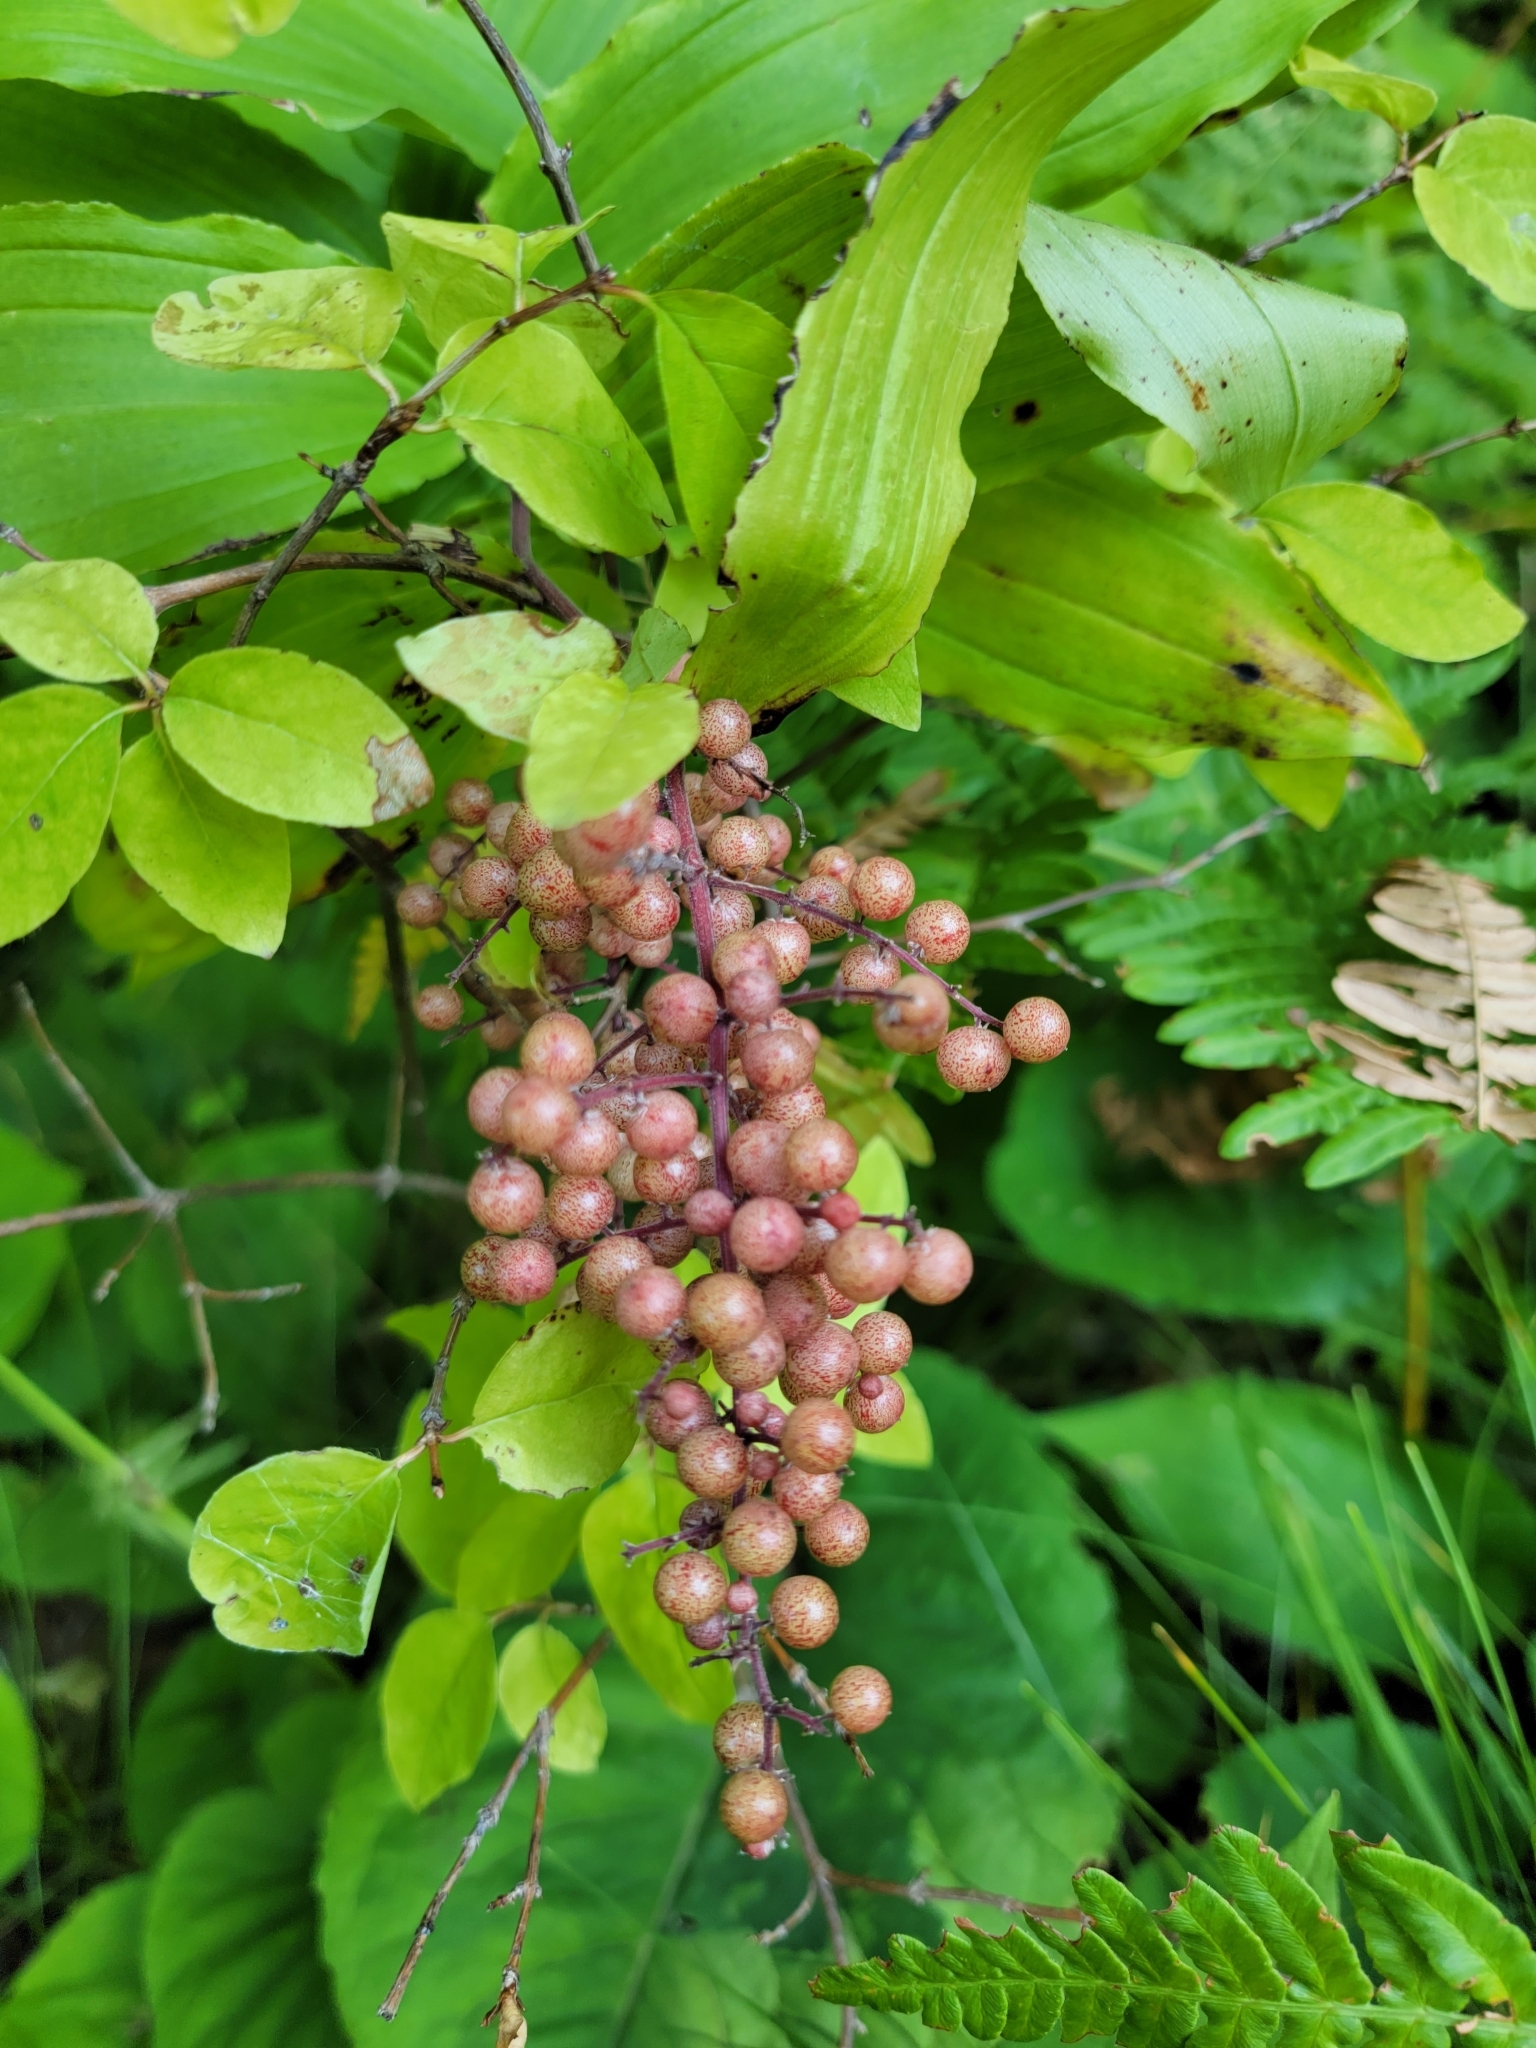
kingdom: Plantae
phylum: Tracheophyta
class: Liliopsida
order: Asparagales
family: Asparagaceae
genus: Maianthemum
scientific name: Maianthemum racemosum
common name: False spikenard
